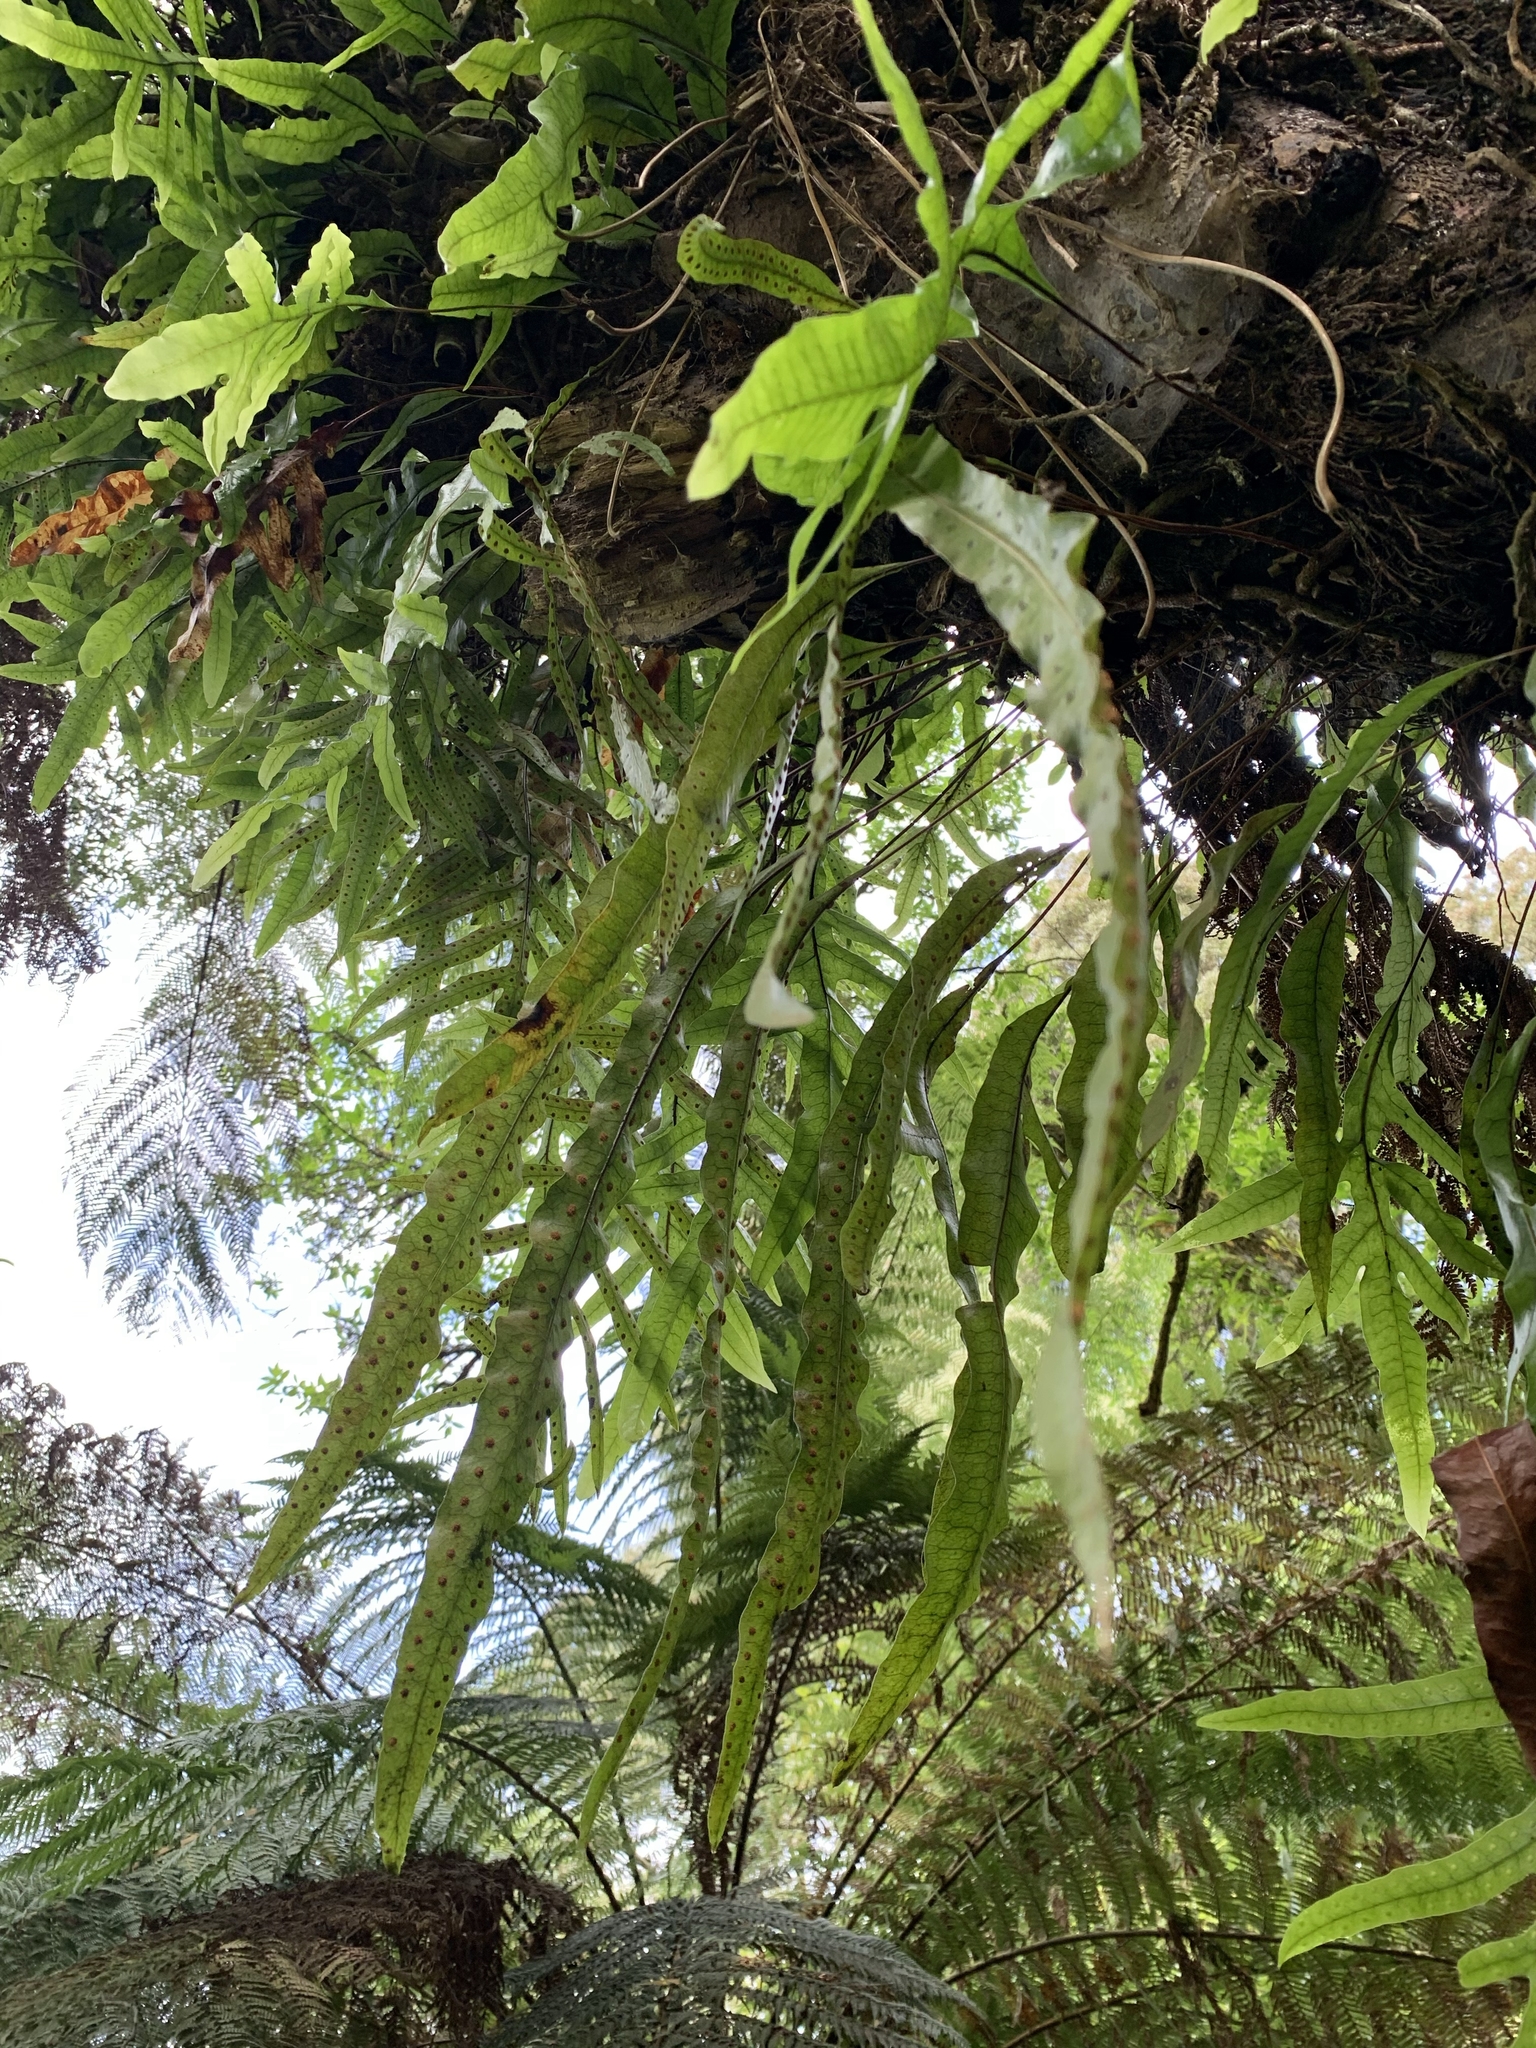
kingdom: Plantae
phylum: Tracheophyta
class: Polypodiopsida
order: Polypodiales
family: Polypodiaceae
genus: Lecanopteris
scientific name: Lecanopteris pustulata
